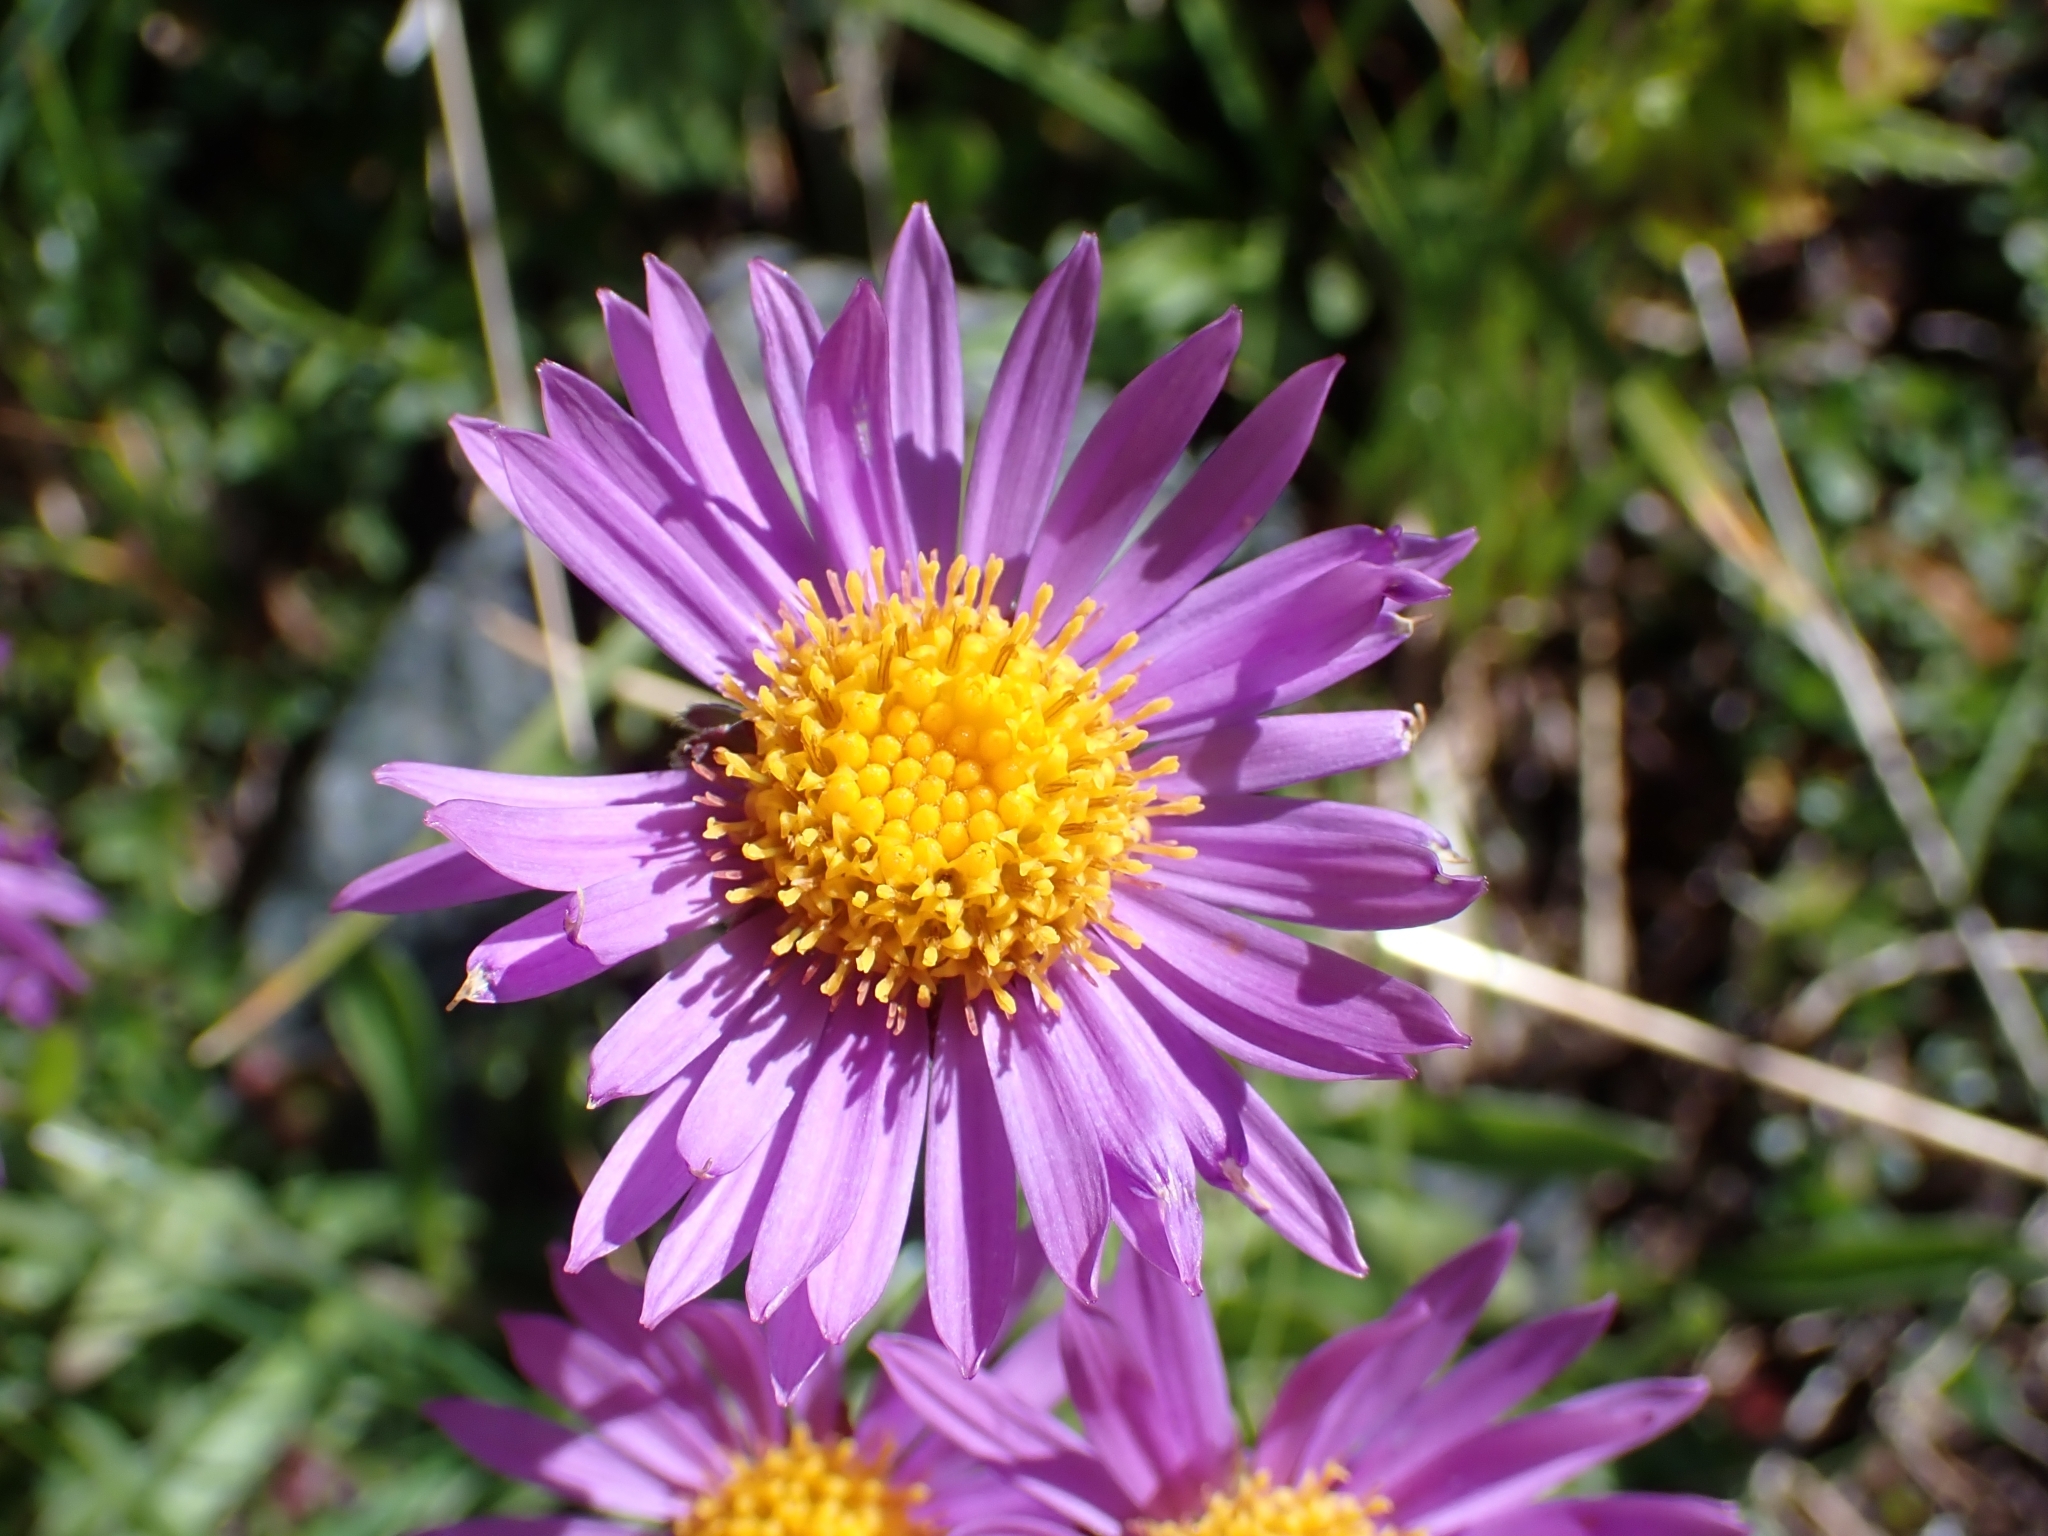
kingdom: Plantae
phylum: Tracheophyta
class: Magnoliopsida
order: Asterales
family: Asteraceae
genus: Aster
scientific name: Aster alpinus
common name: Alpine aster
